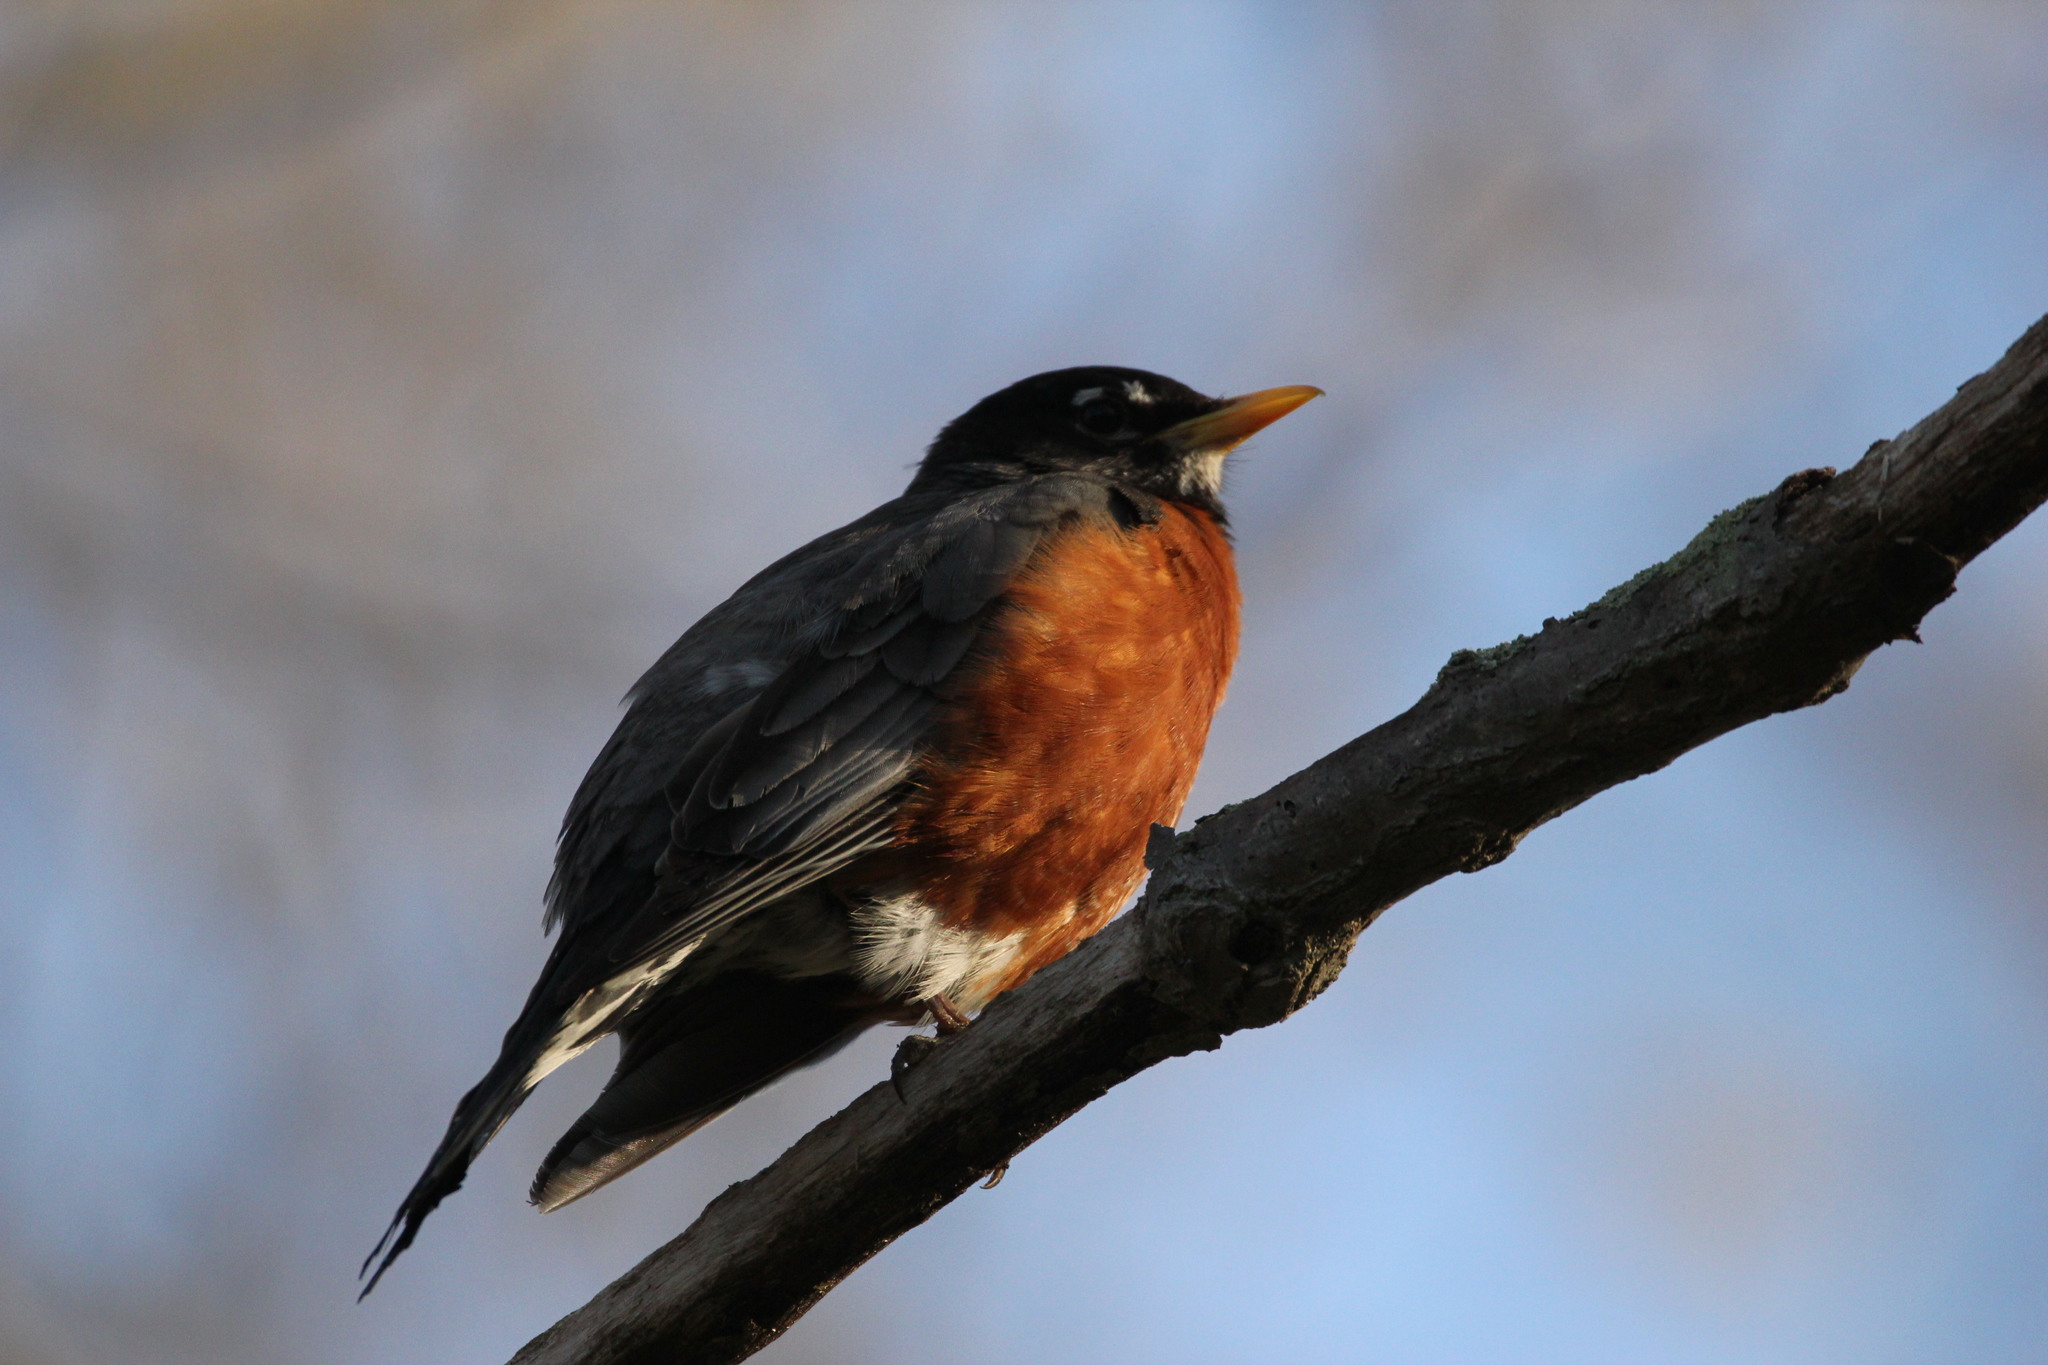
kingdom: Animalia
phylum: Chordata
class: Aves
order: Passeriformes
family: Turdidae
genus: Turdus
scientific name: Turdus migratorius
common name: American robin
